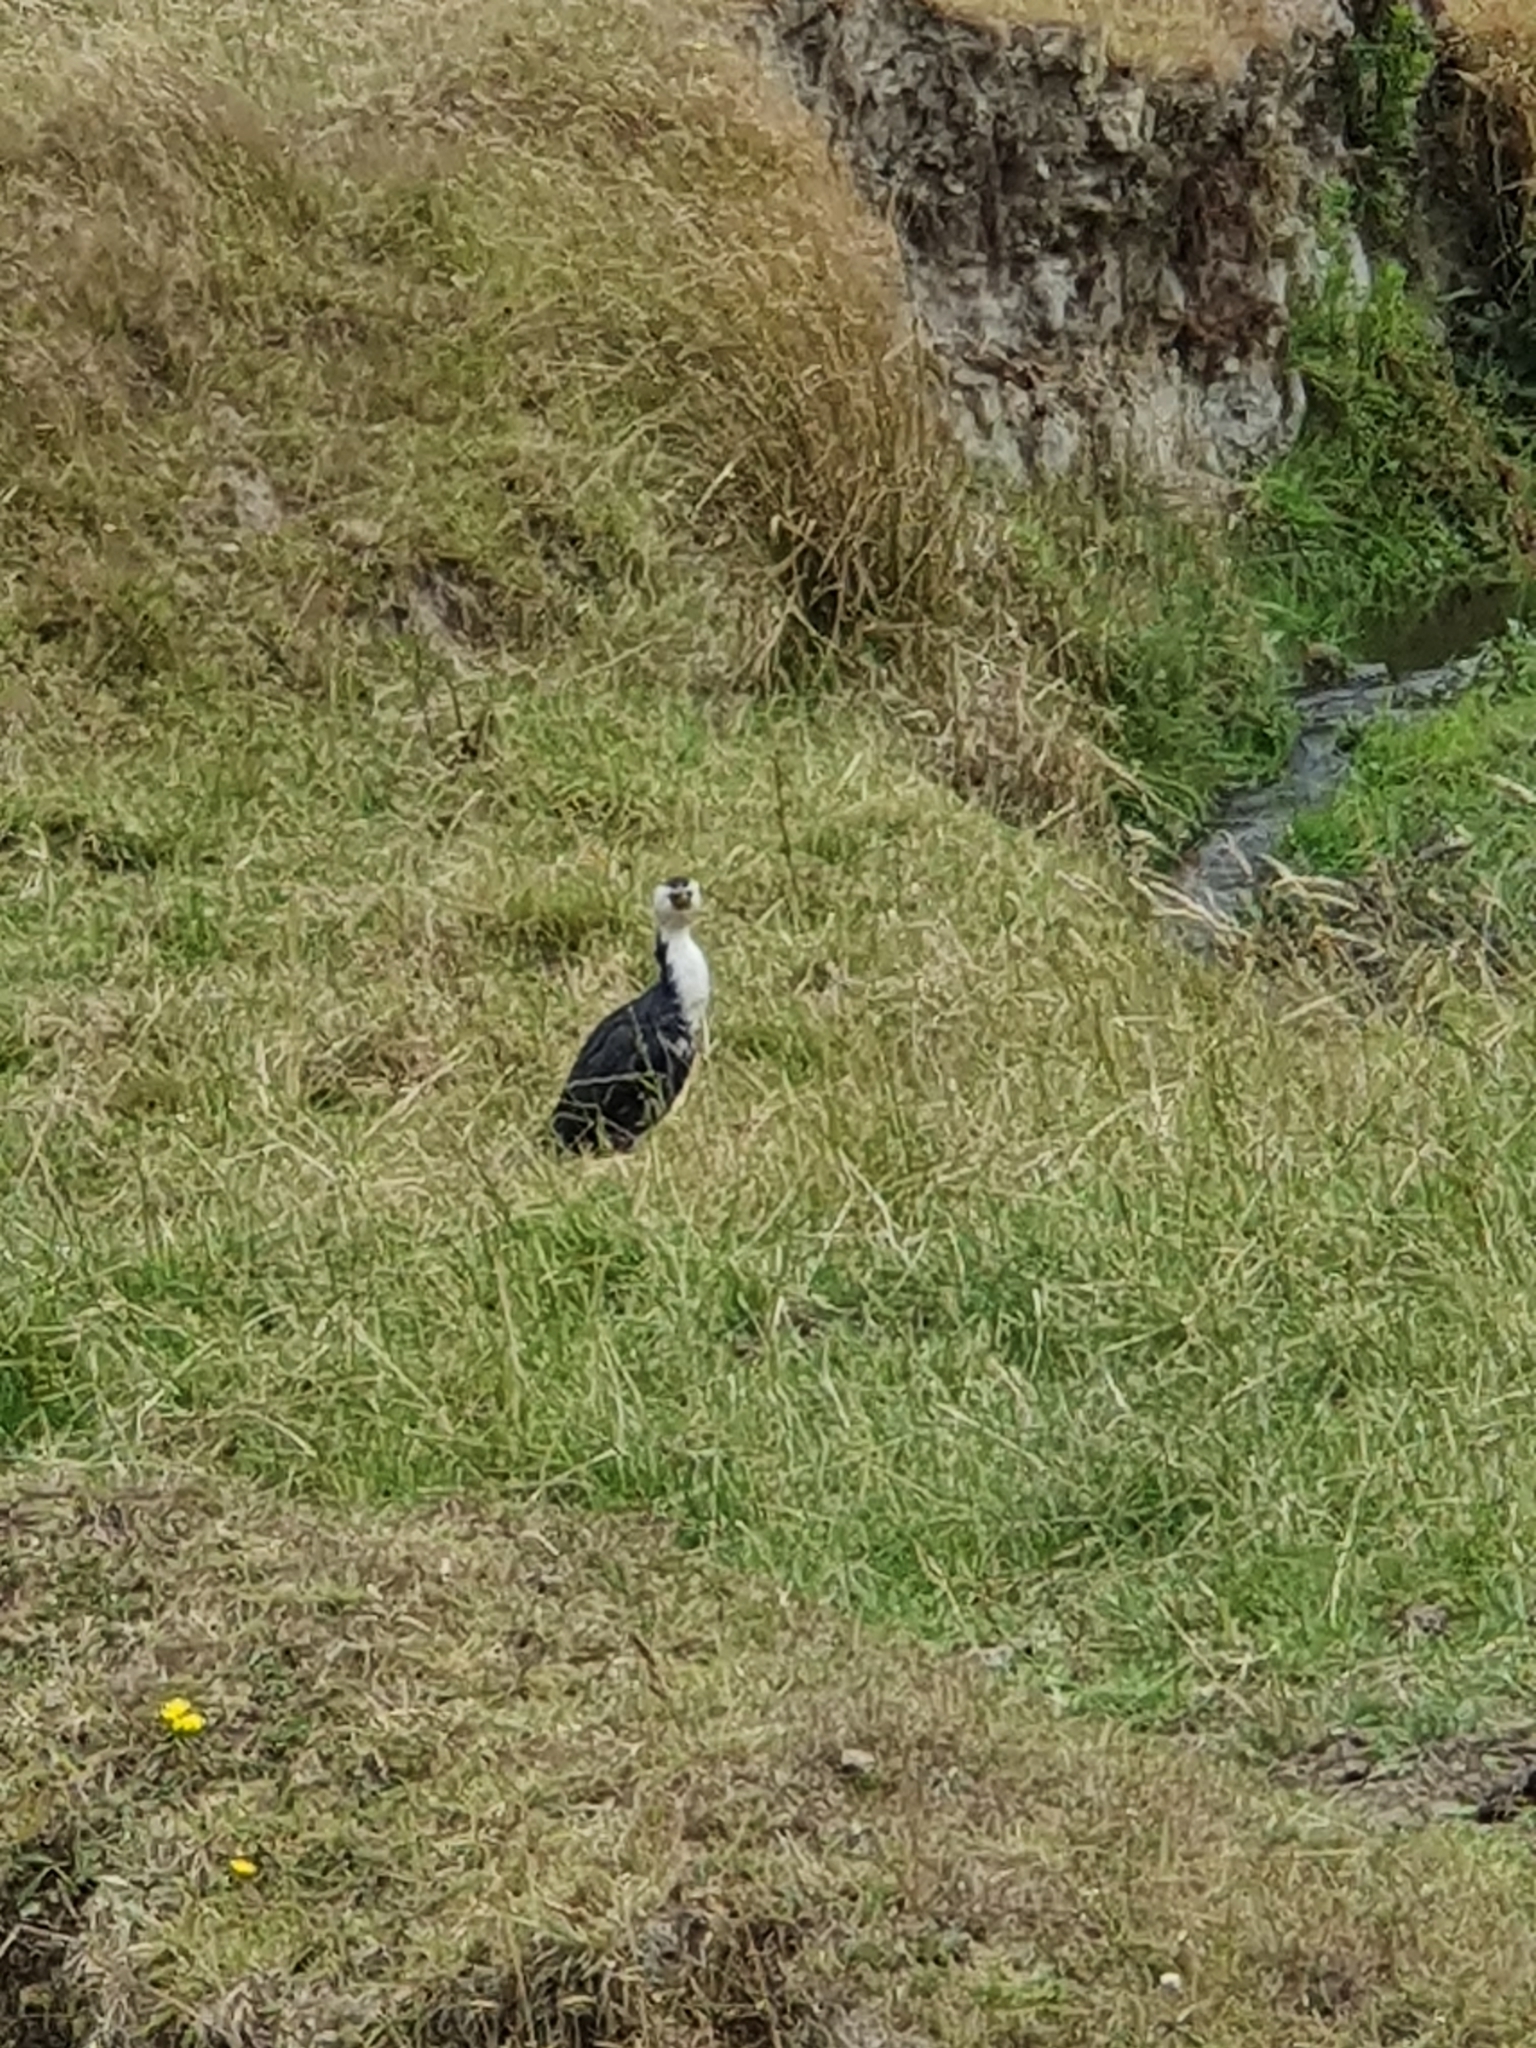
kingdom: Animalia
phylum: Chordata
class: Aves
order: Suliformes
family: Phalacrocoracidae
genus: Microcarbo
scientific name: Microcarbo melanoleucos
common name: Little pied cormorant
